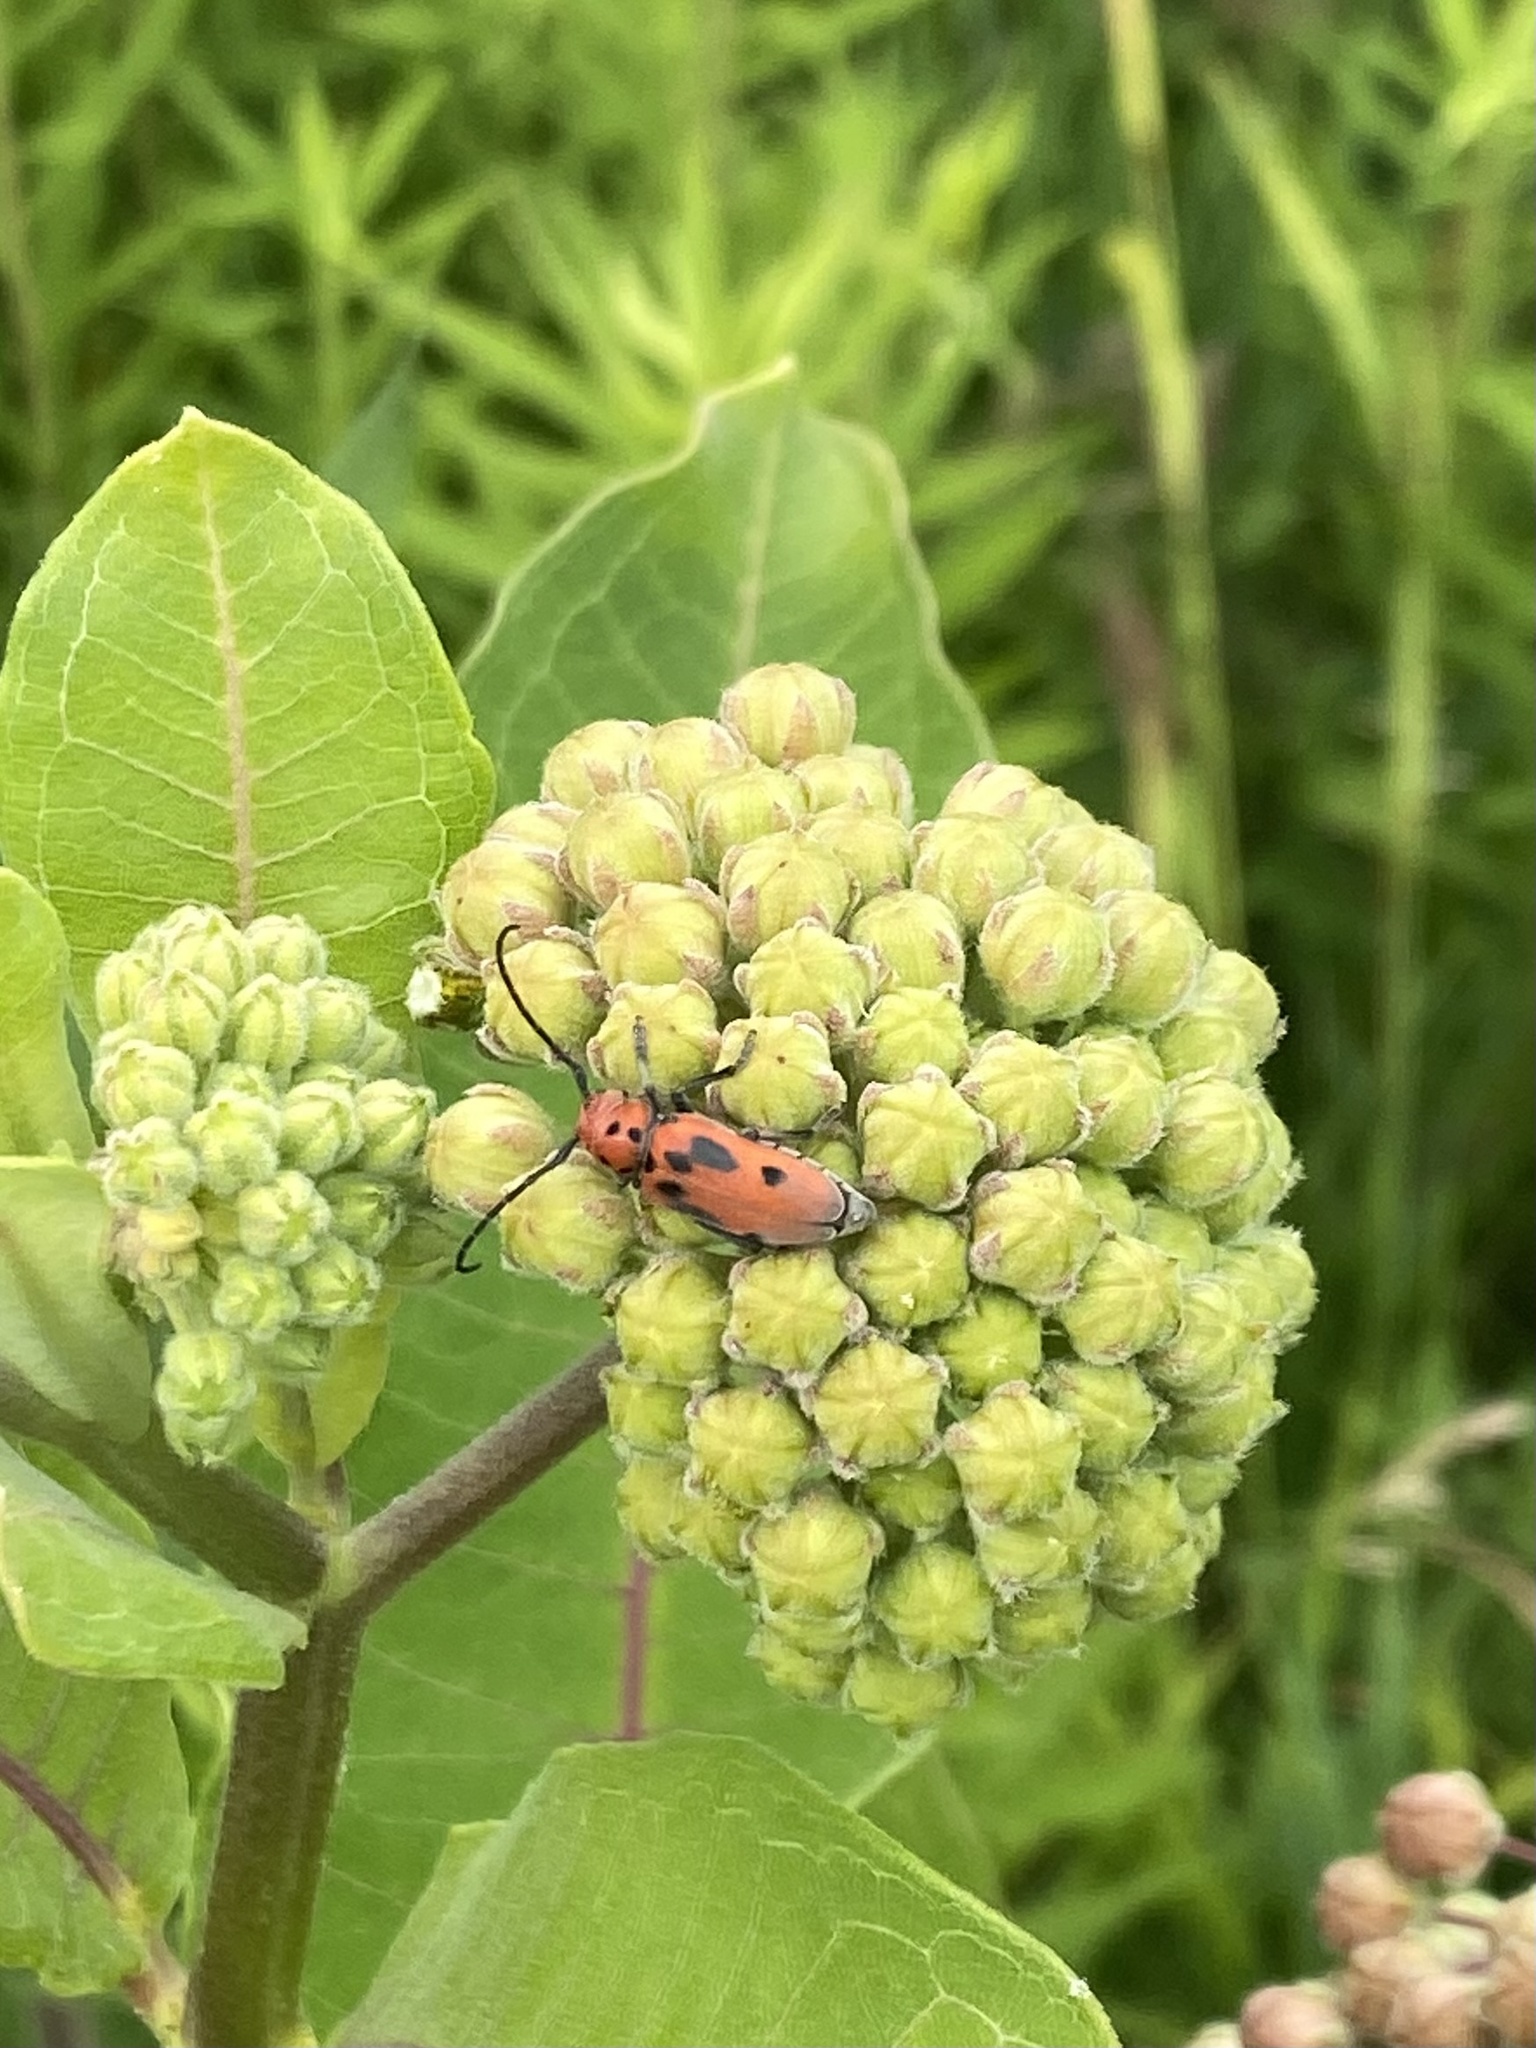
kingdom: Animalia
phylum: Arthropoda
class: Insecta
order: Coleoptera
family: Cerambycidae
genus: Tetraopes
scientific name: Tetraopes tetrophthalmus
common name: Red milkweed beetle
